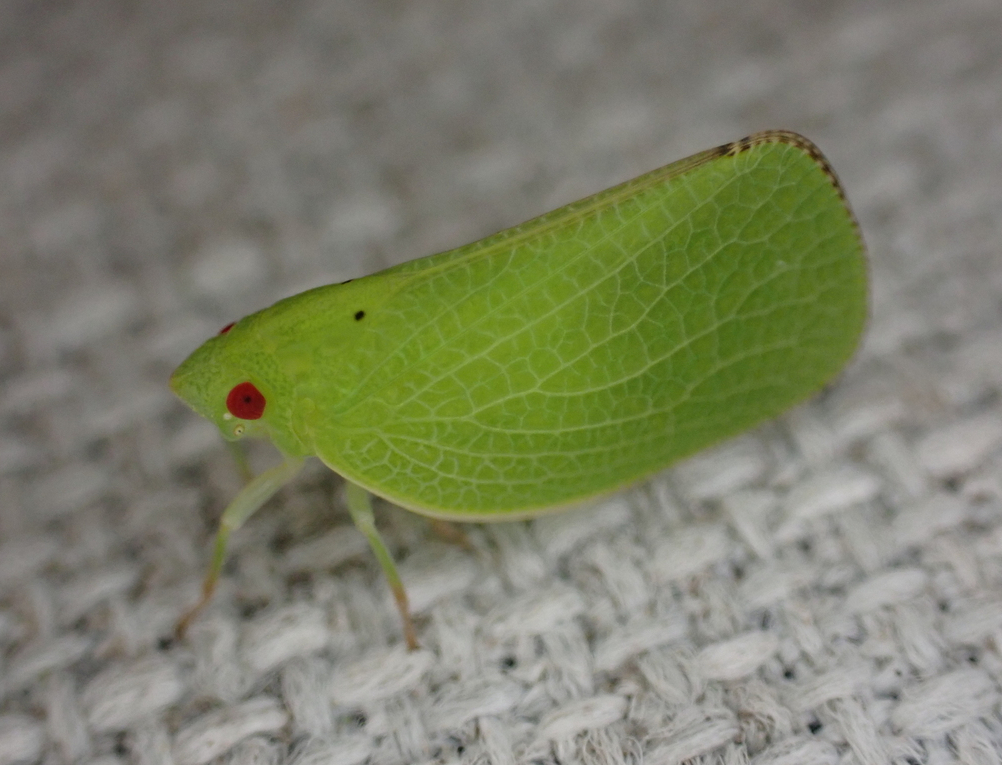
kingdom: Animalia
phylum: Arthropoda
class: Insecta
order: Hemiptera
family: Acanaloniidae
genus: Acanalonia
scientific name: Acanalonia conica
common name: Green cone-headed planthopper
